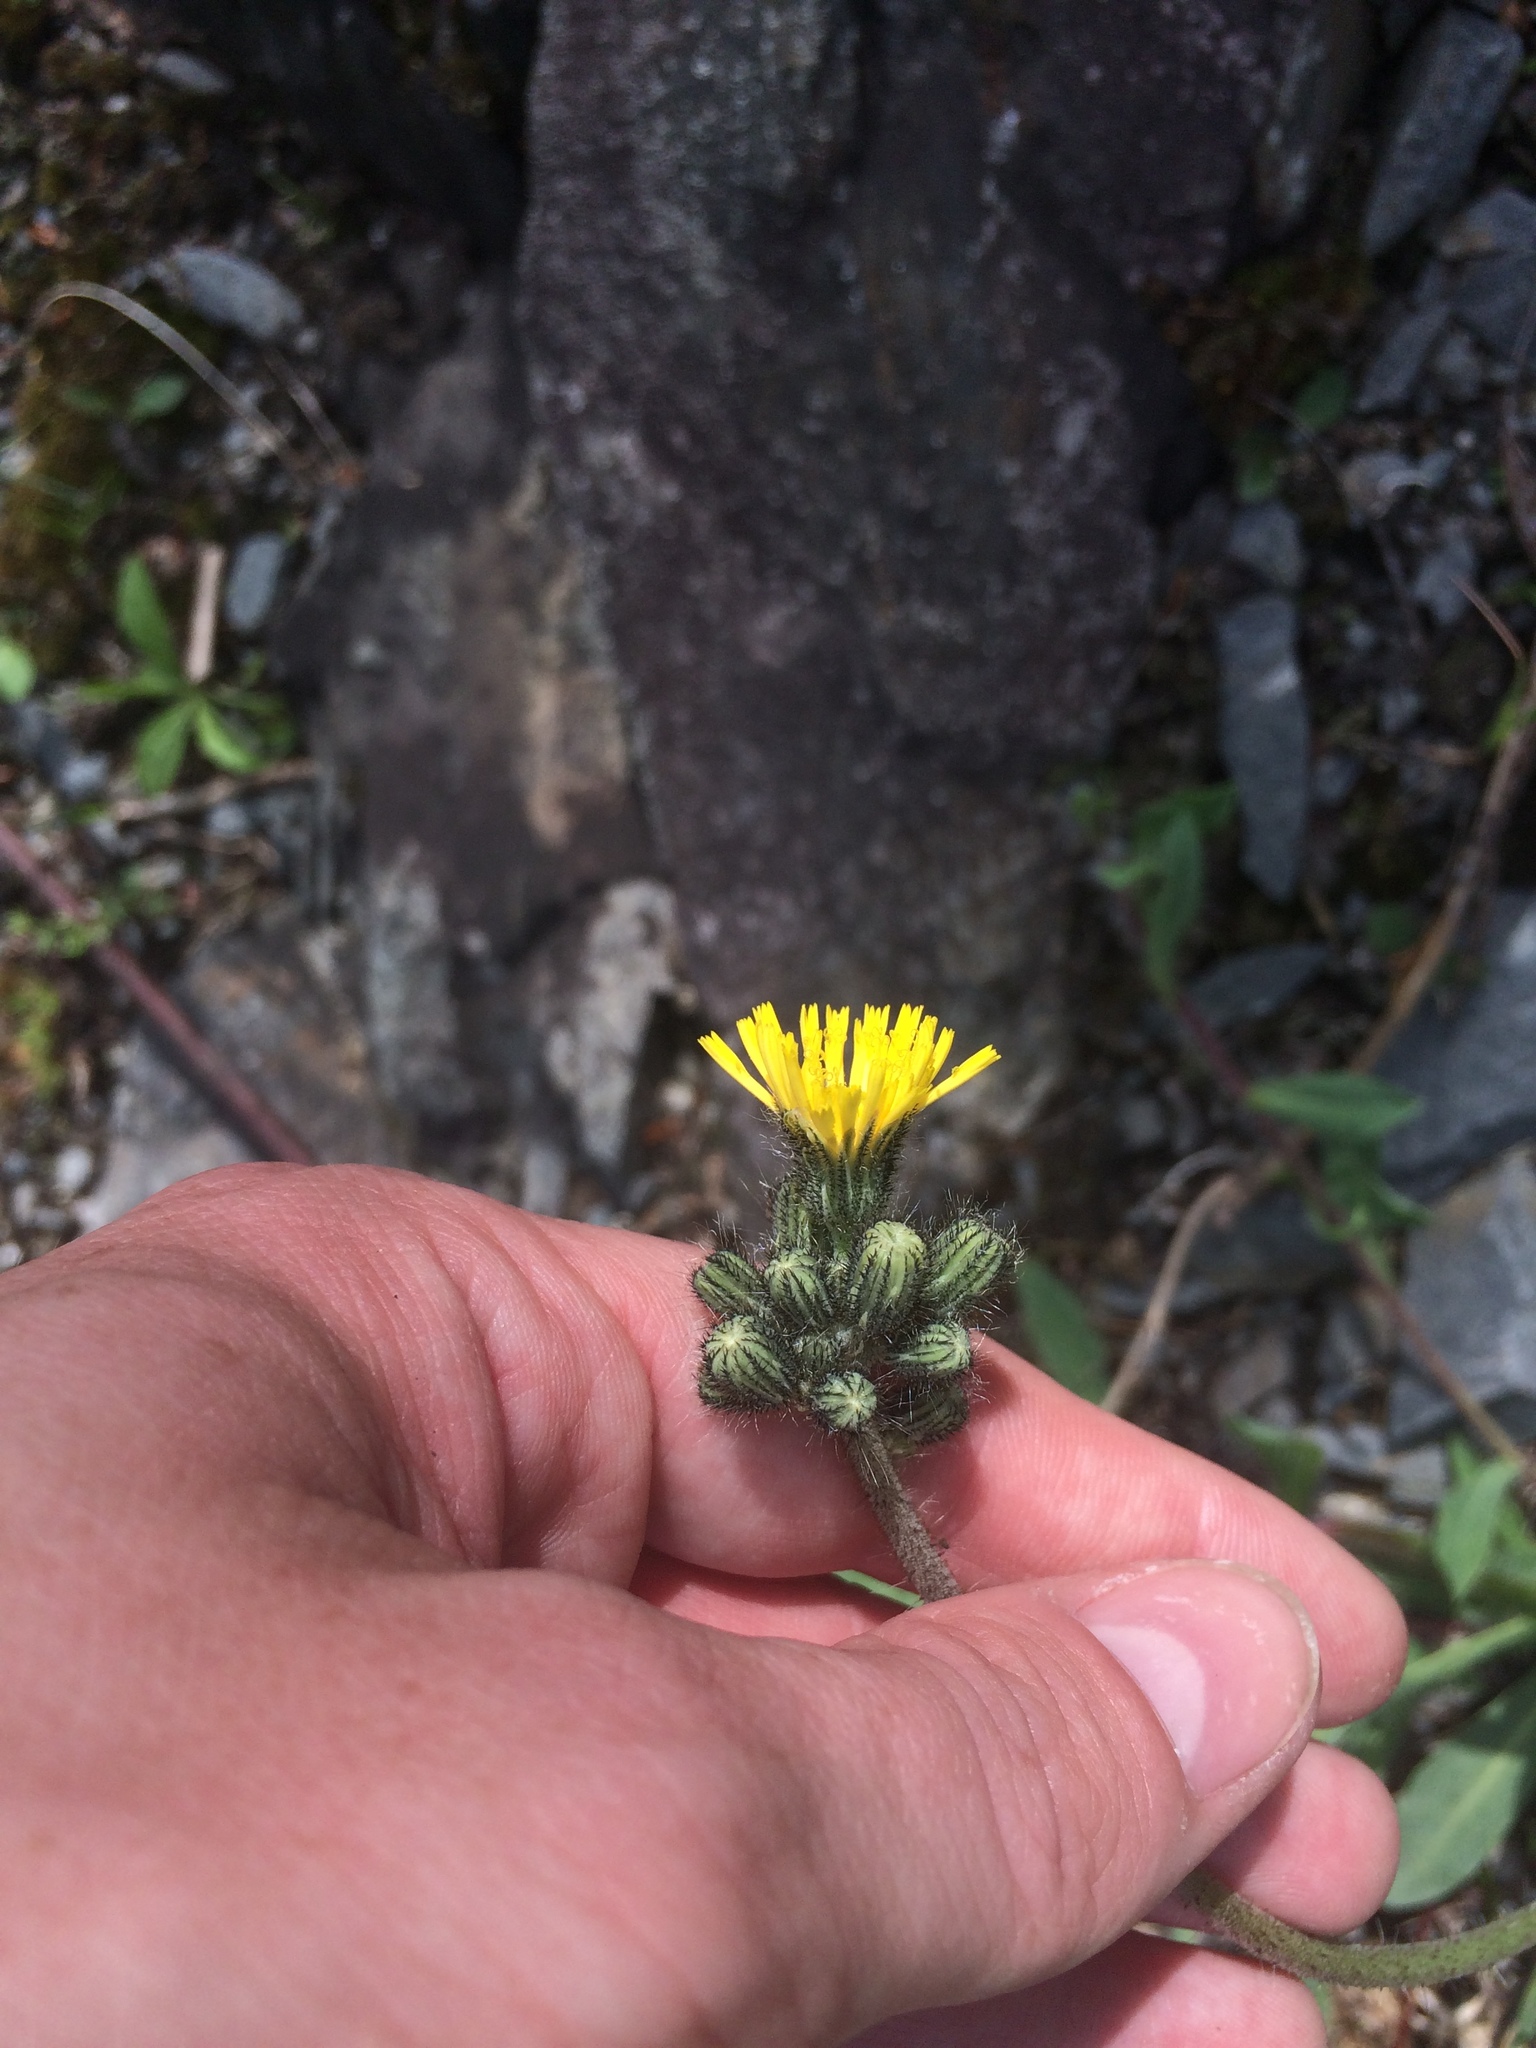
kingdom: Plantae
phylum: Tracheophyta
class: Magnoliopsida
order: Asterales
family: Asteraceae
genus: Pilosella
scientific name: Pilosella piloselloides
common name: Glaucous king-devil
